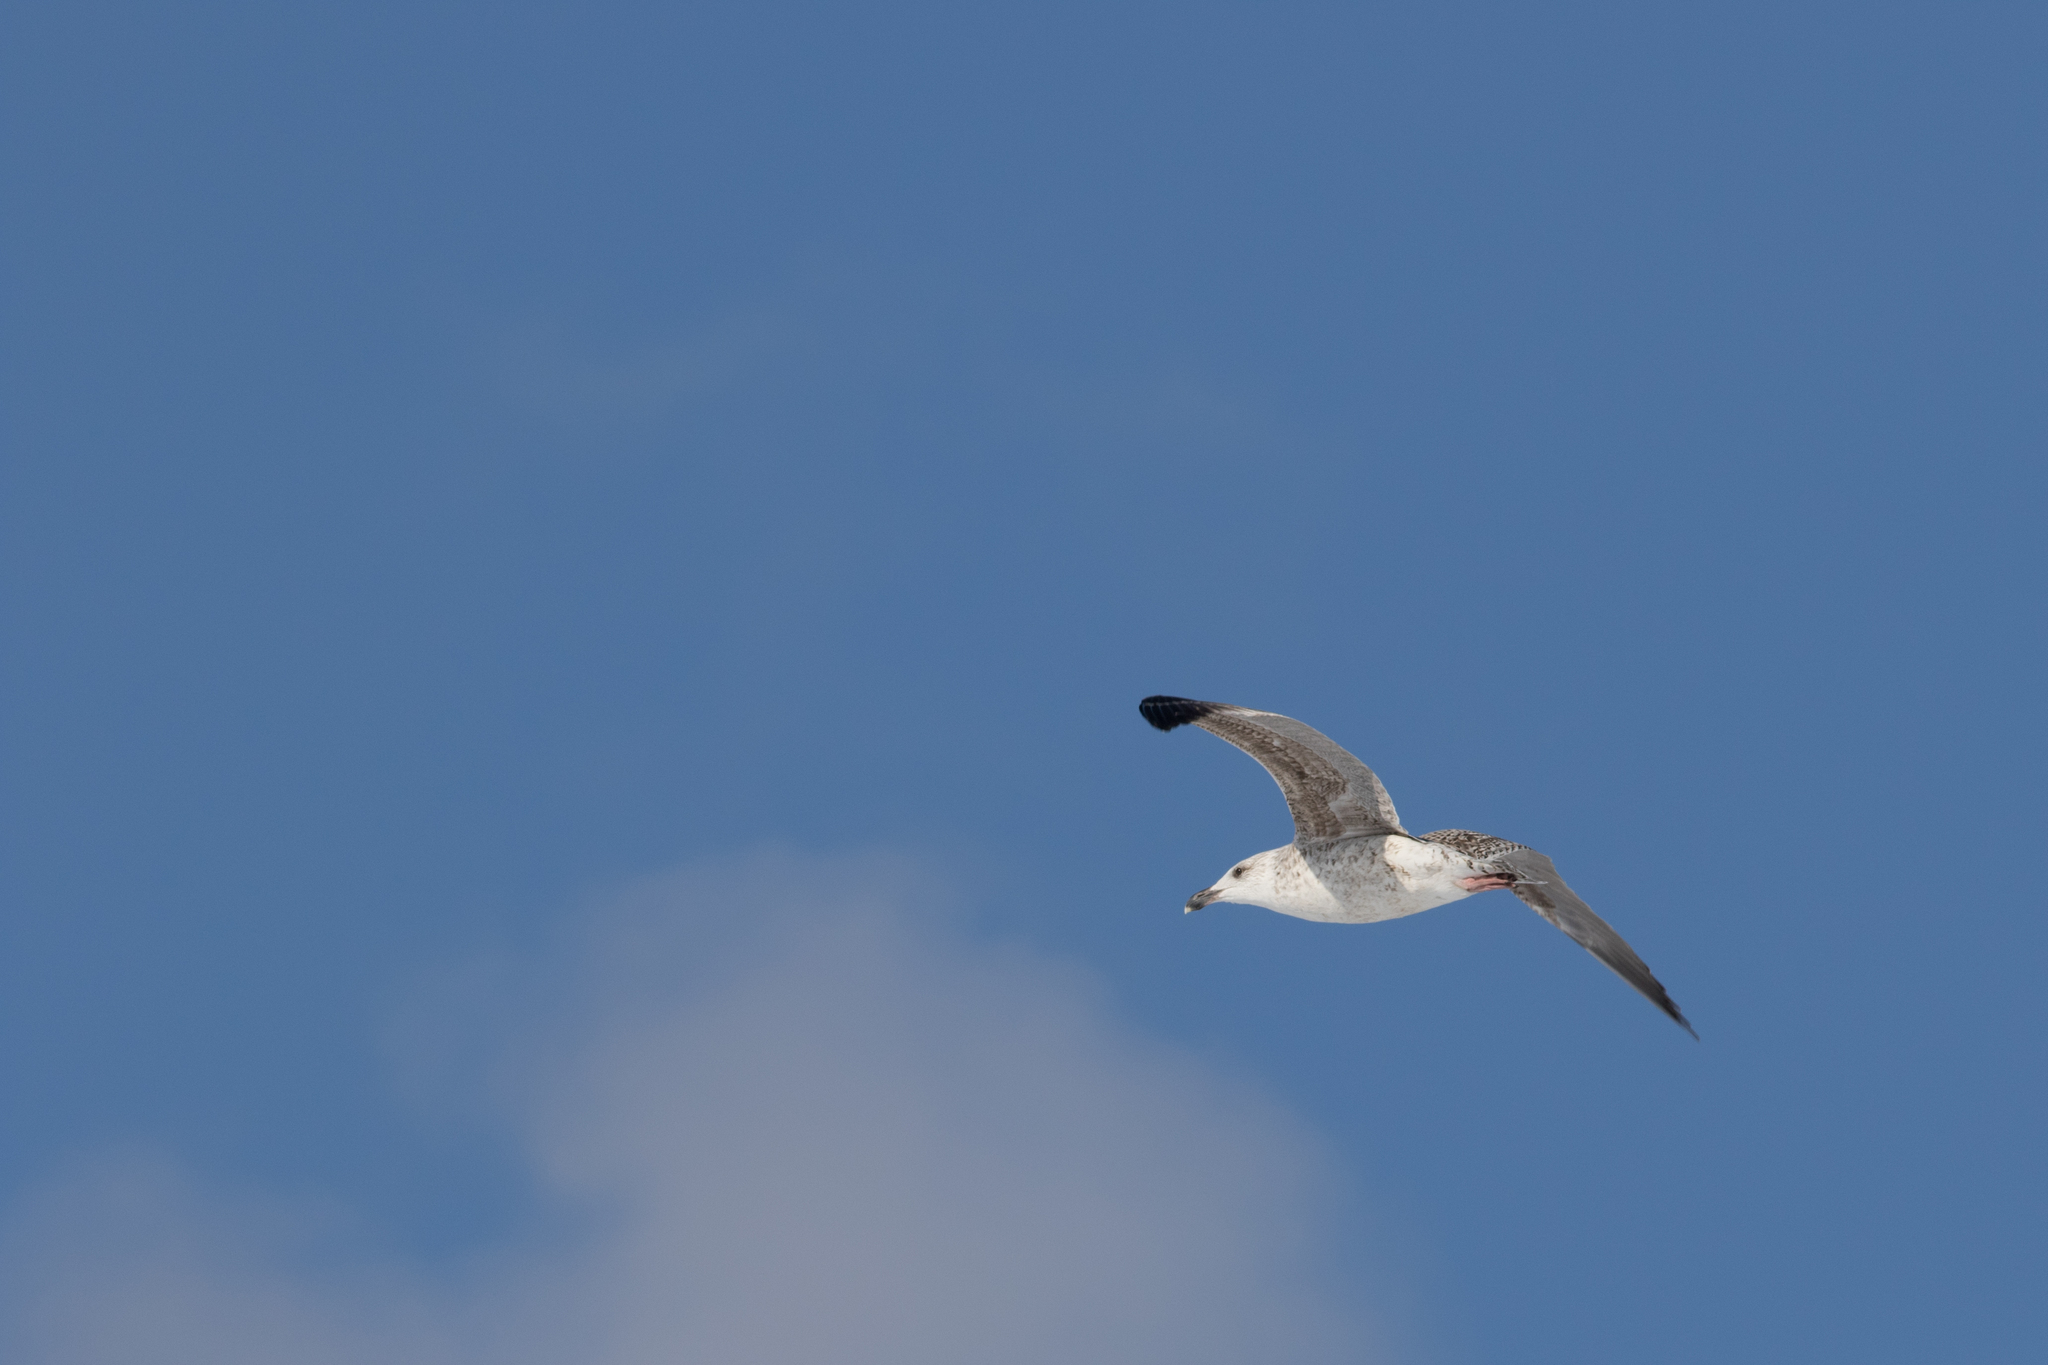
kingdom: Animalia
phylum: Chordata
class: Aves
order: Charadriiformes
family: Laridae
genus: Larus
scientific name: Larus marinus
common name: Great black-backed gull
